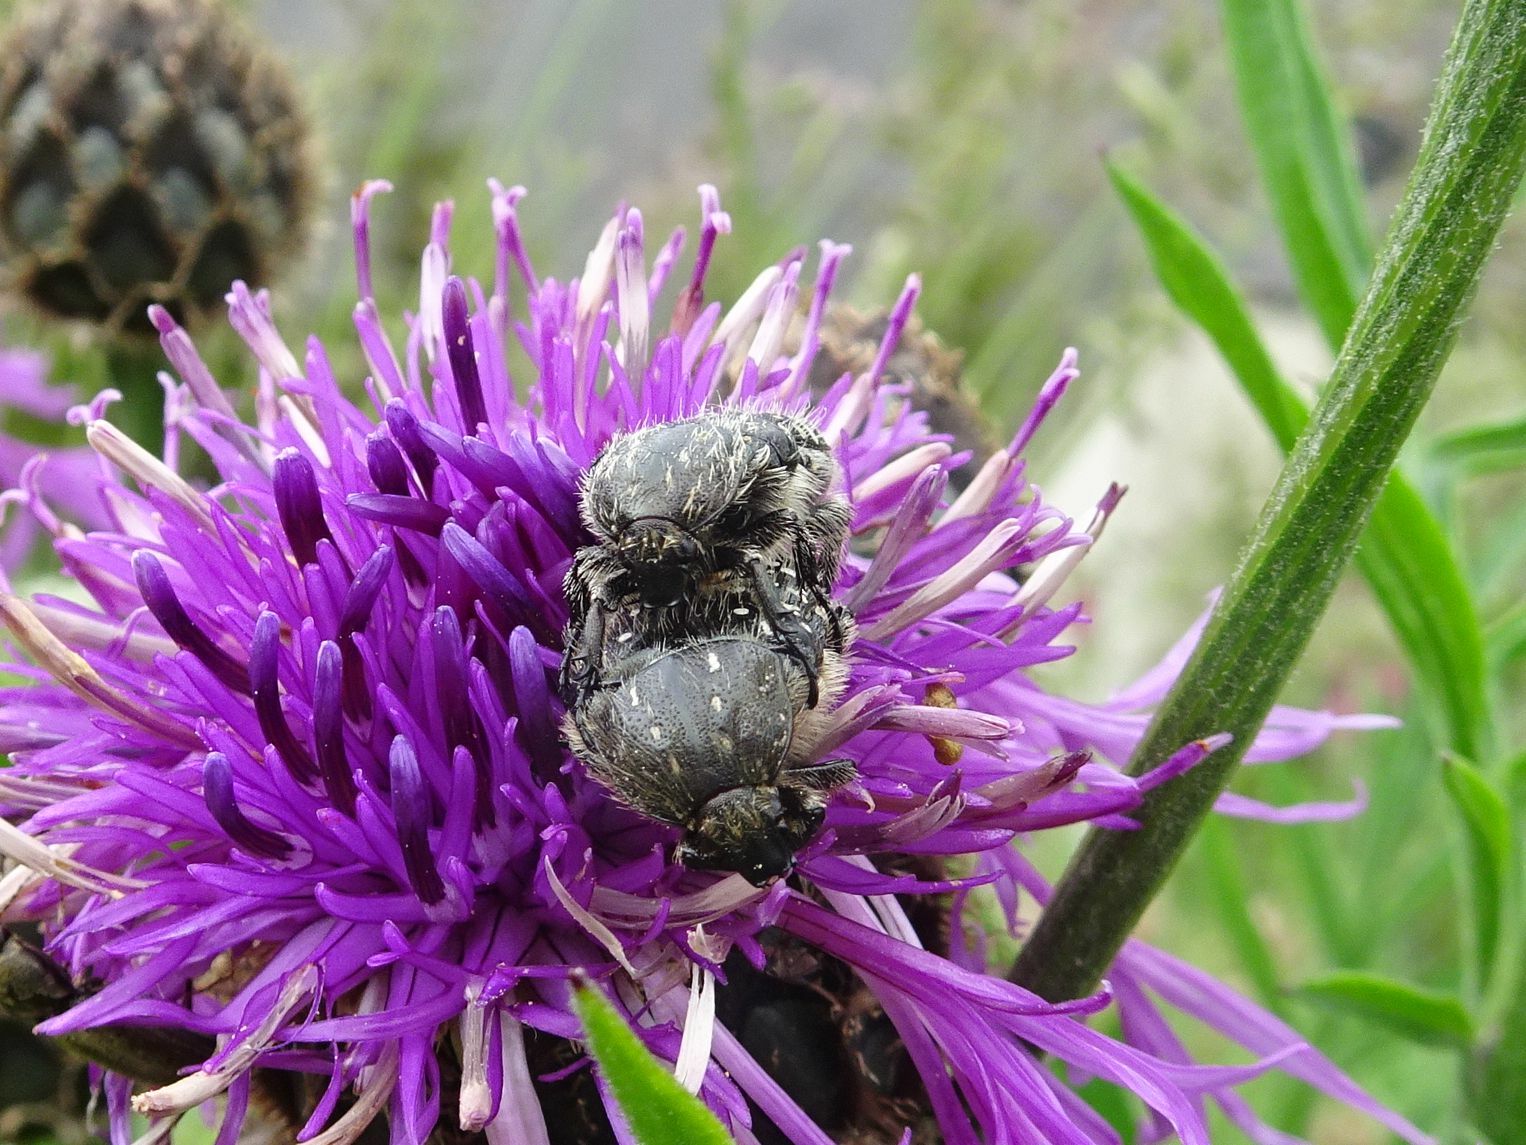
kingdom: Animalia
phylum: Arthropoda
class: Insecta
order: Coleoptera
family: Scarabaeidae
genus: Oxythyrea
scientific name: Oxythyrea funesta
